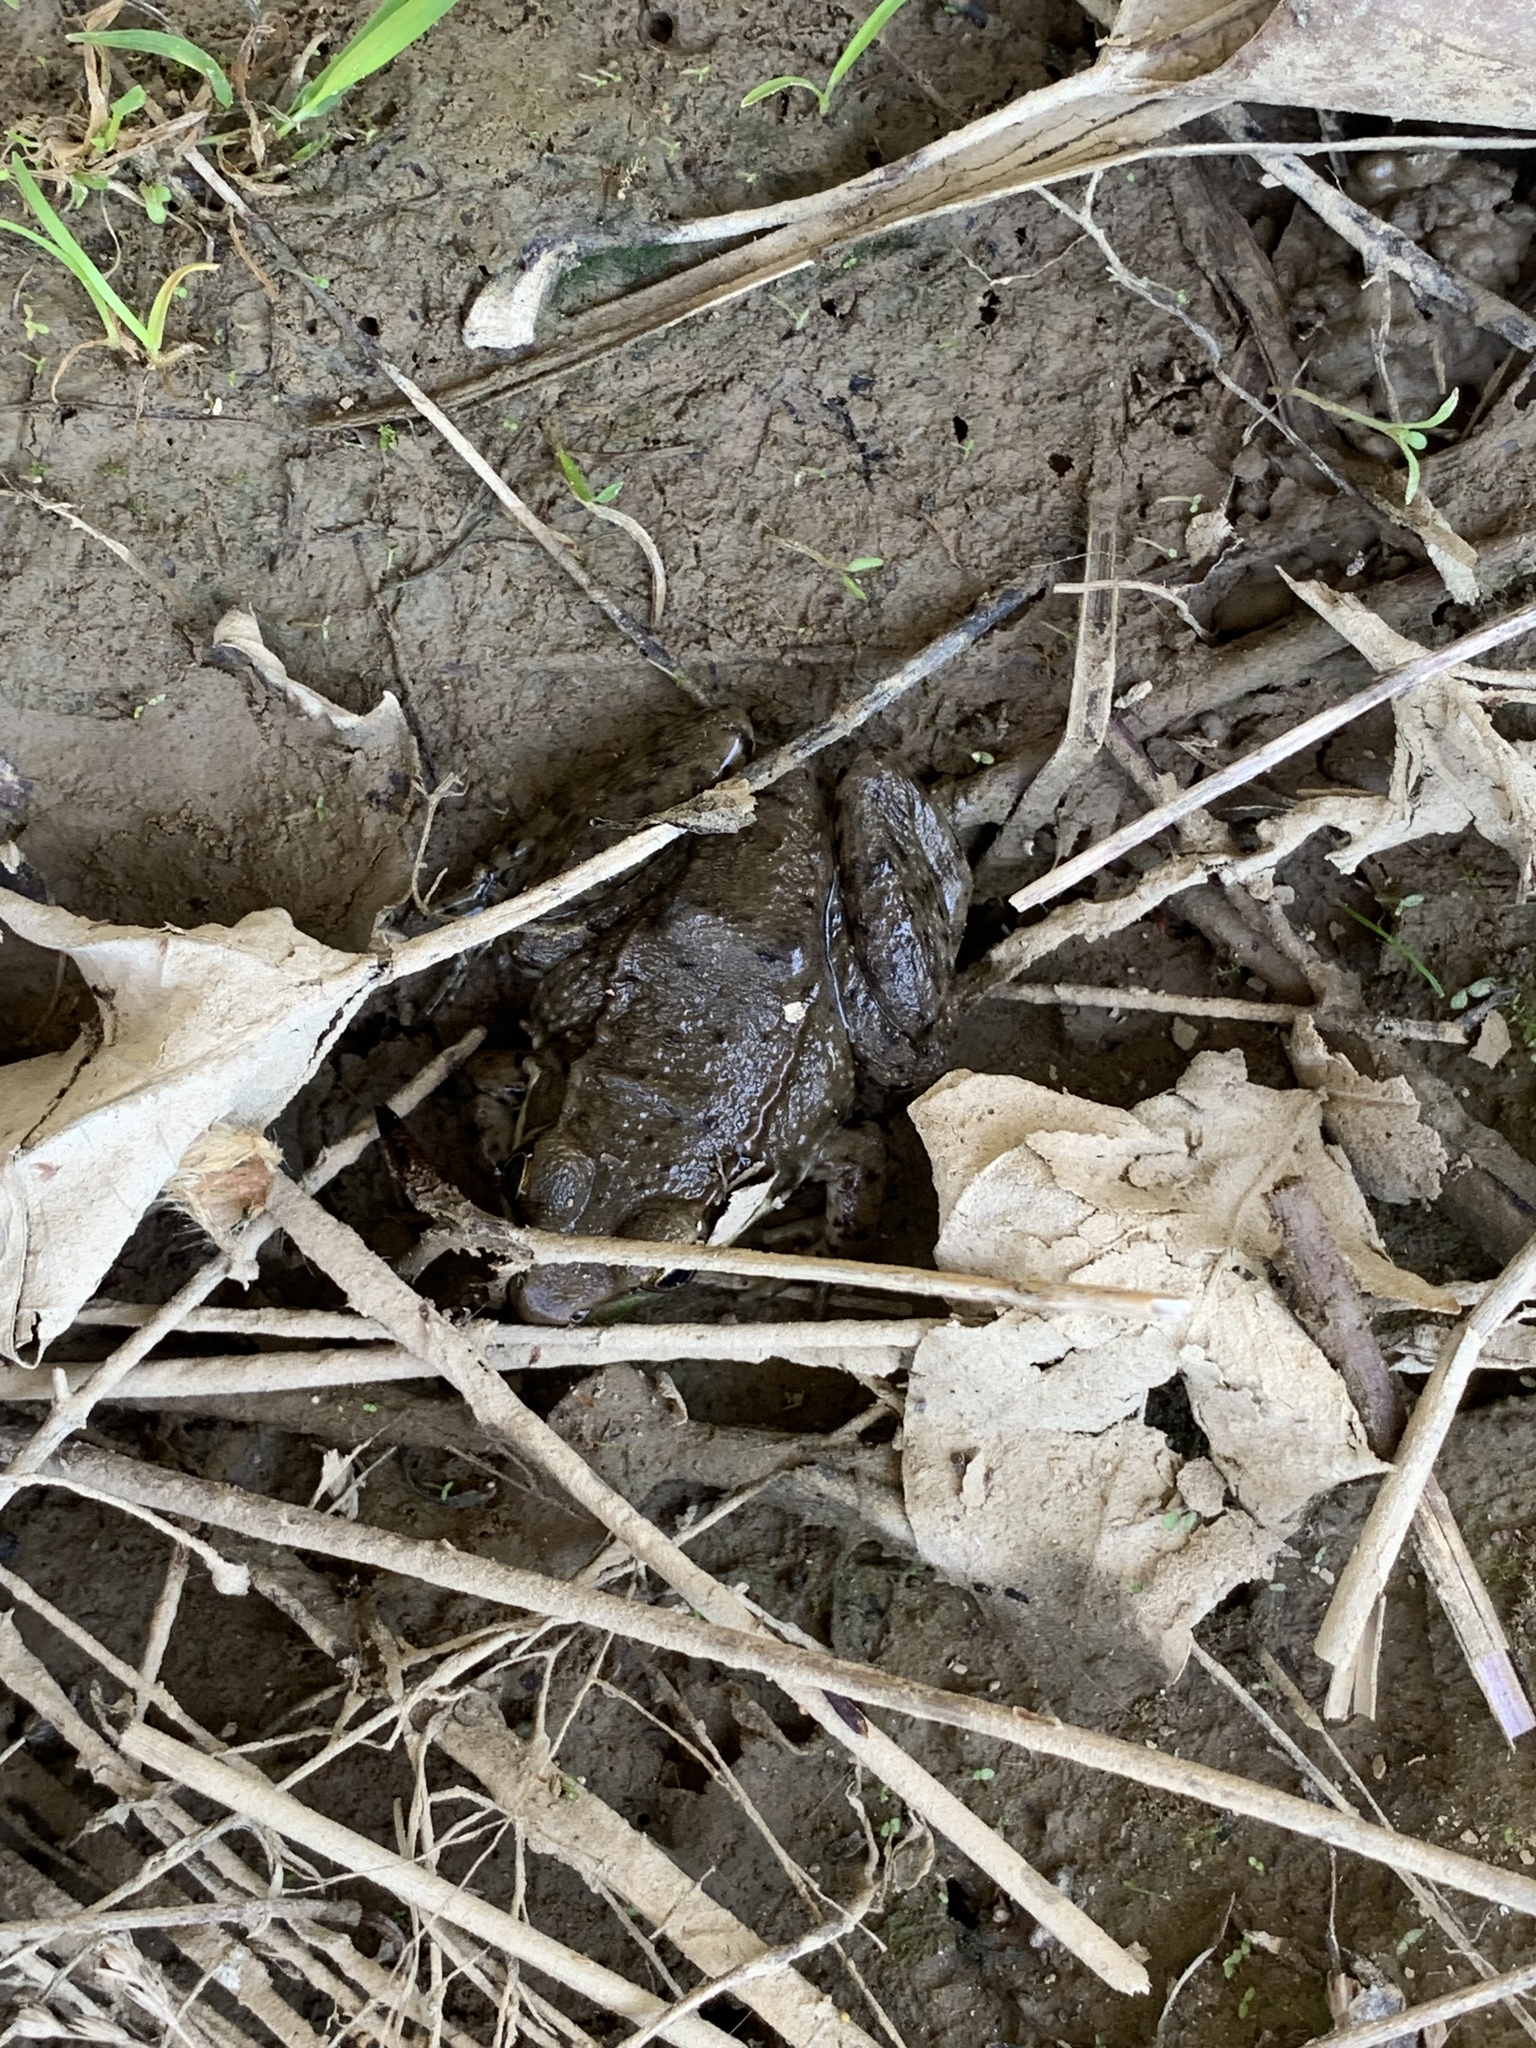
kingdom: Animalia
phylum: Chordata
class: Amphibia
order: Anura
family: Ranidae
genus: Lithobates
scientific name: Lithobates clamitans
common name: Green frog
